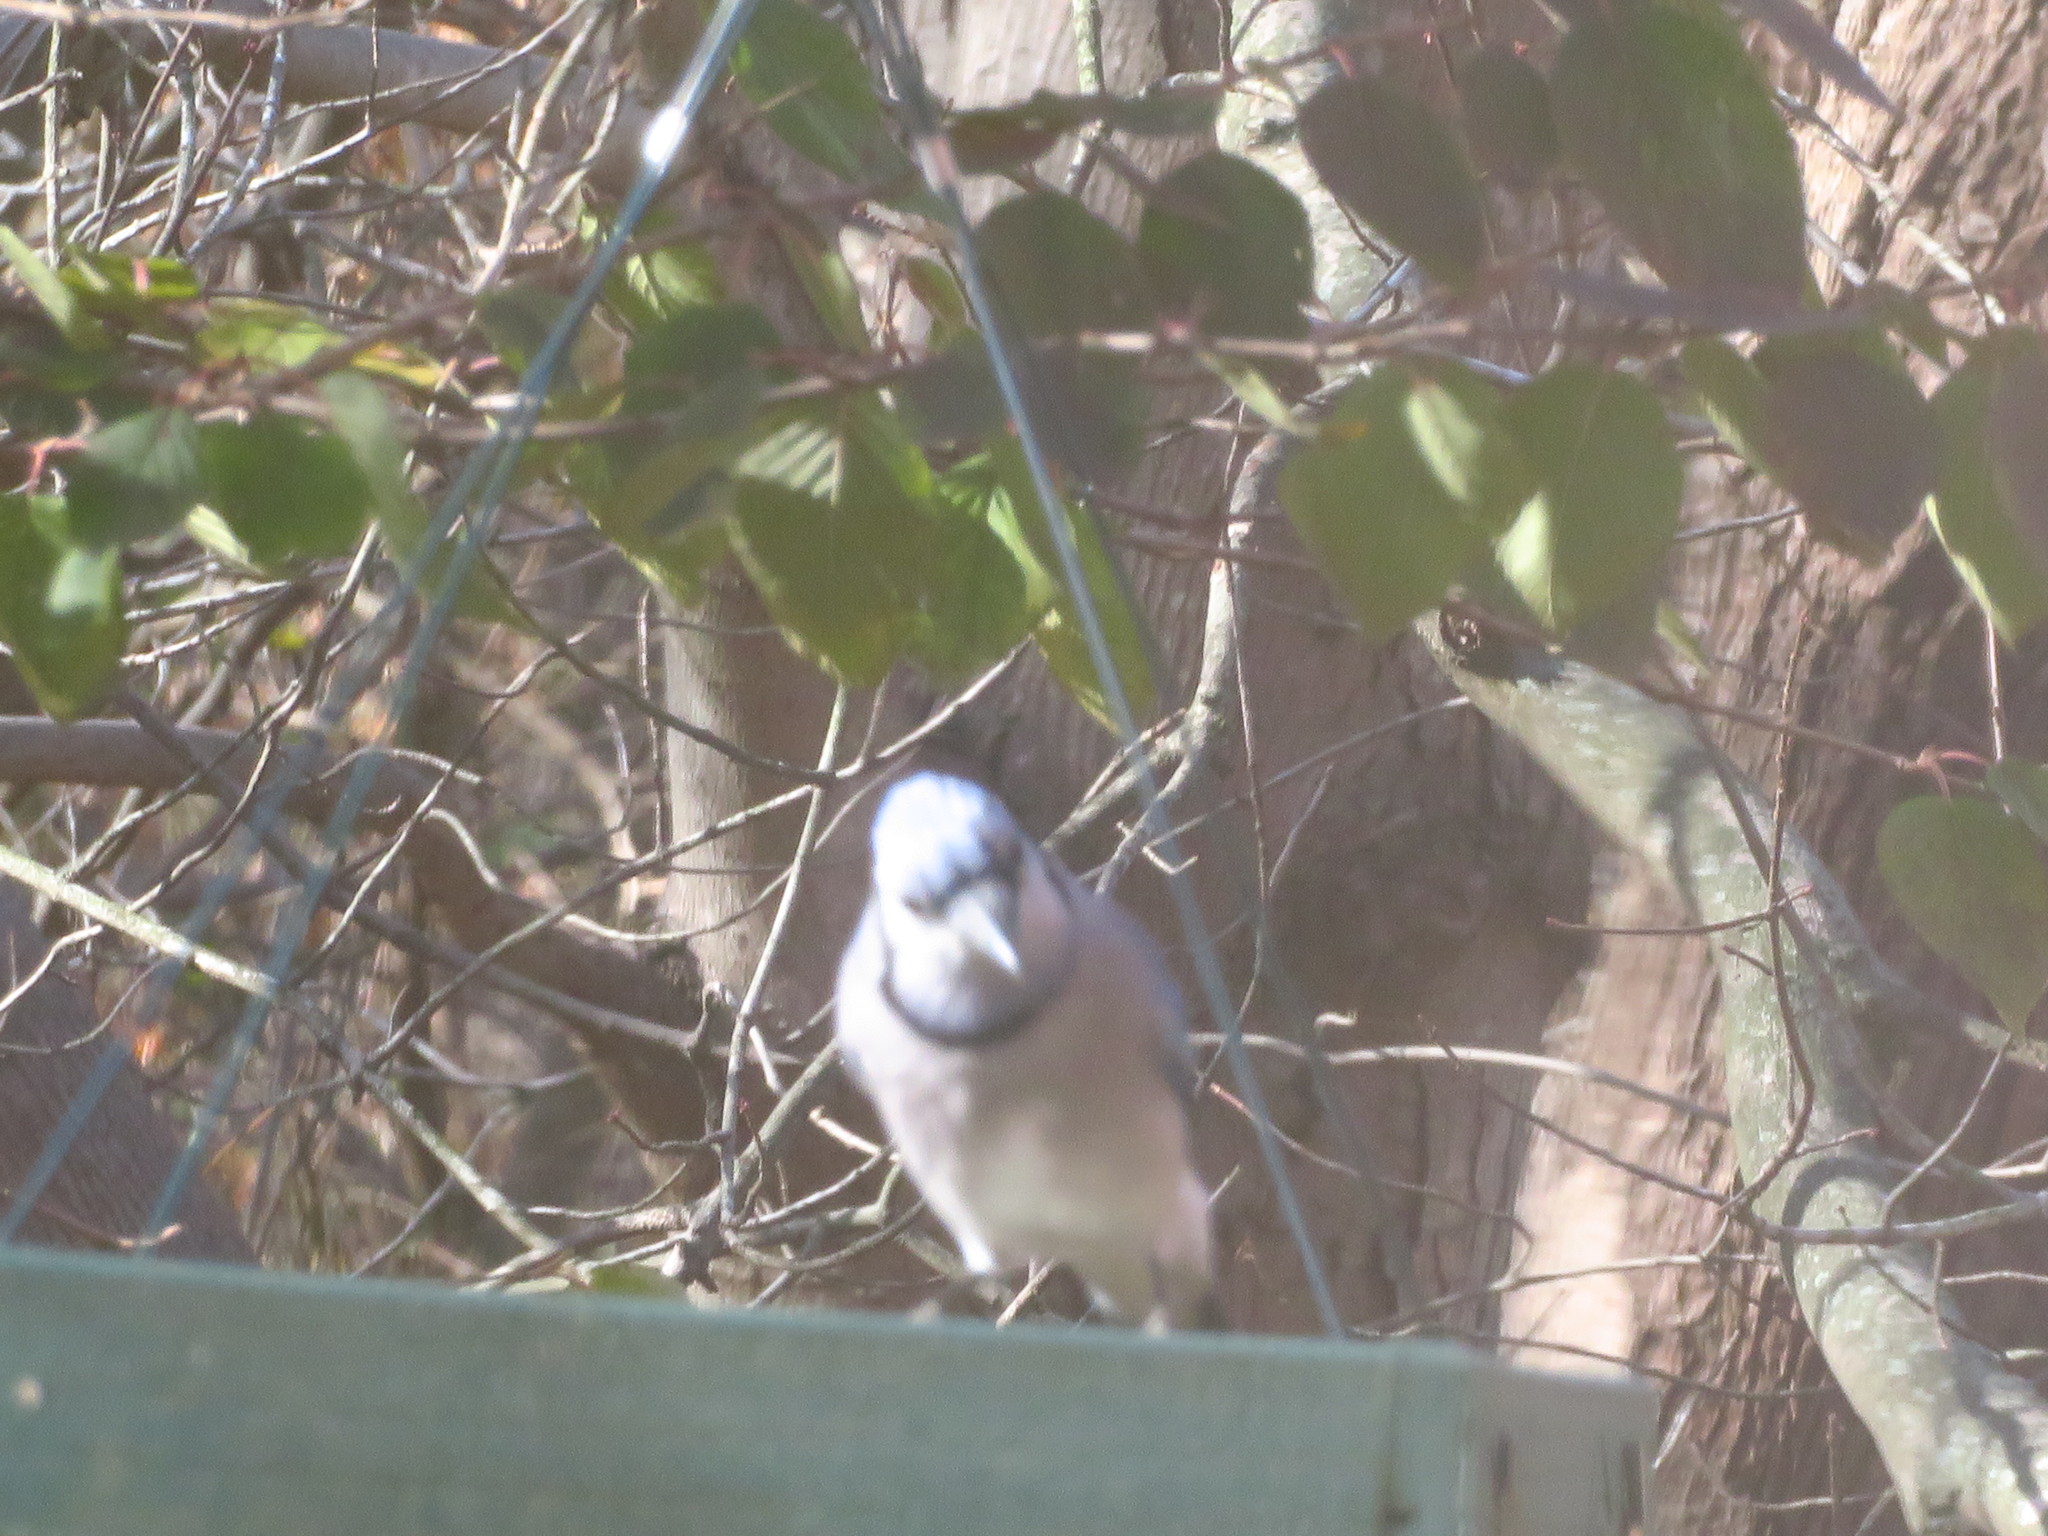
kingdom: Animalia
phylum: Chordata
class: Aves
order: Passeriformes
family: Corvidae
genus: Cyanocitta
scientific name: Cyanocitta cristata
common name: Blue jay
